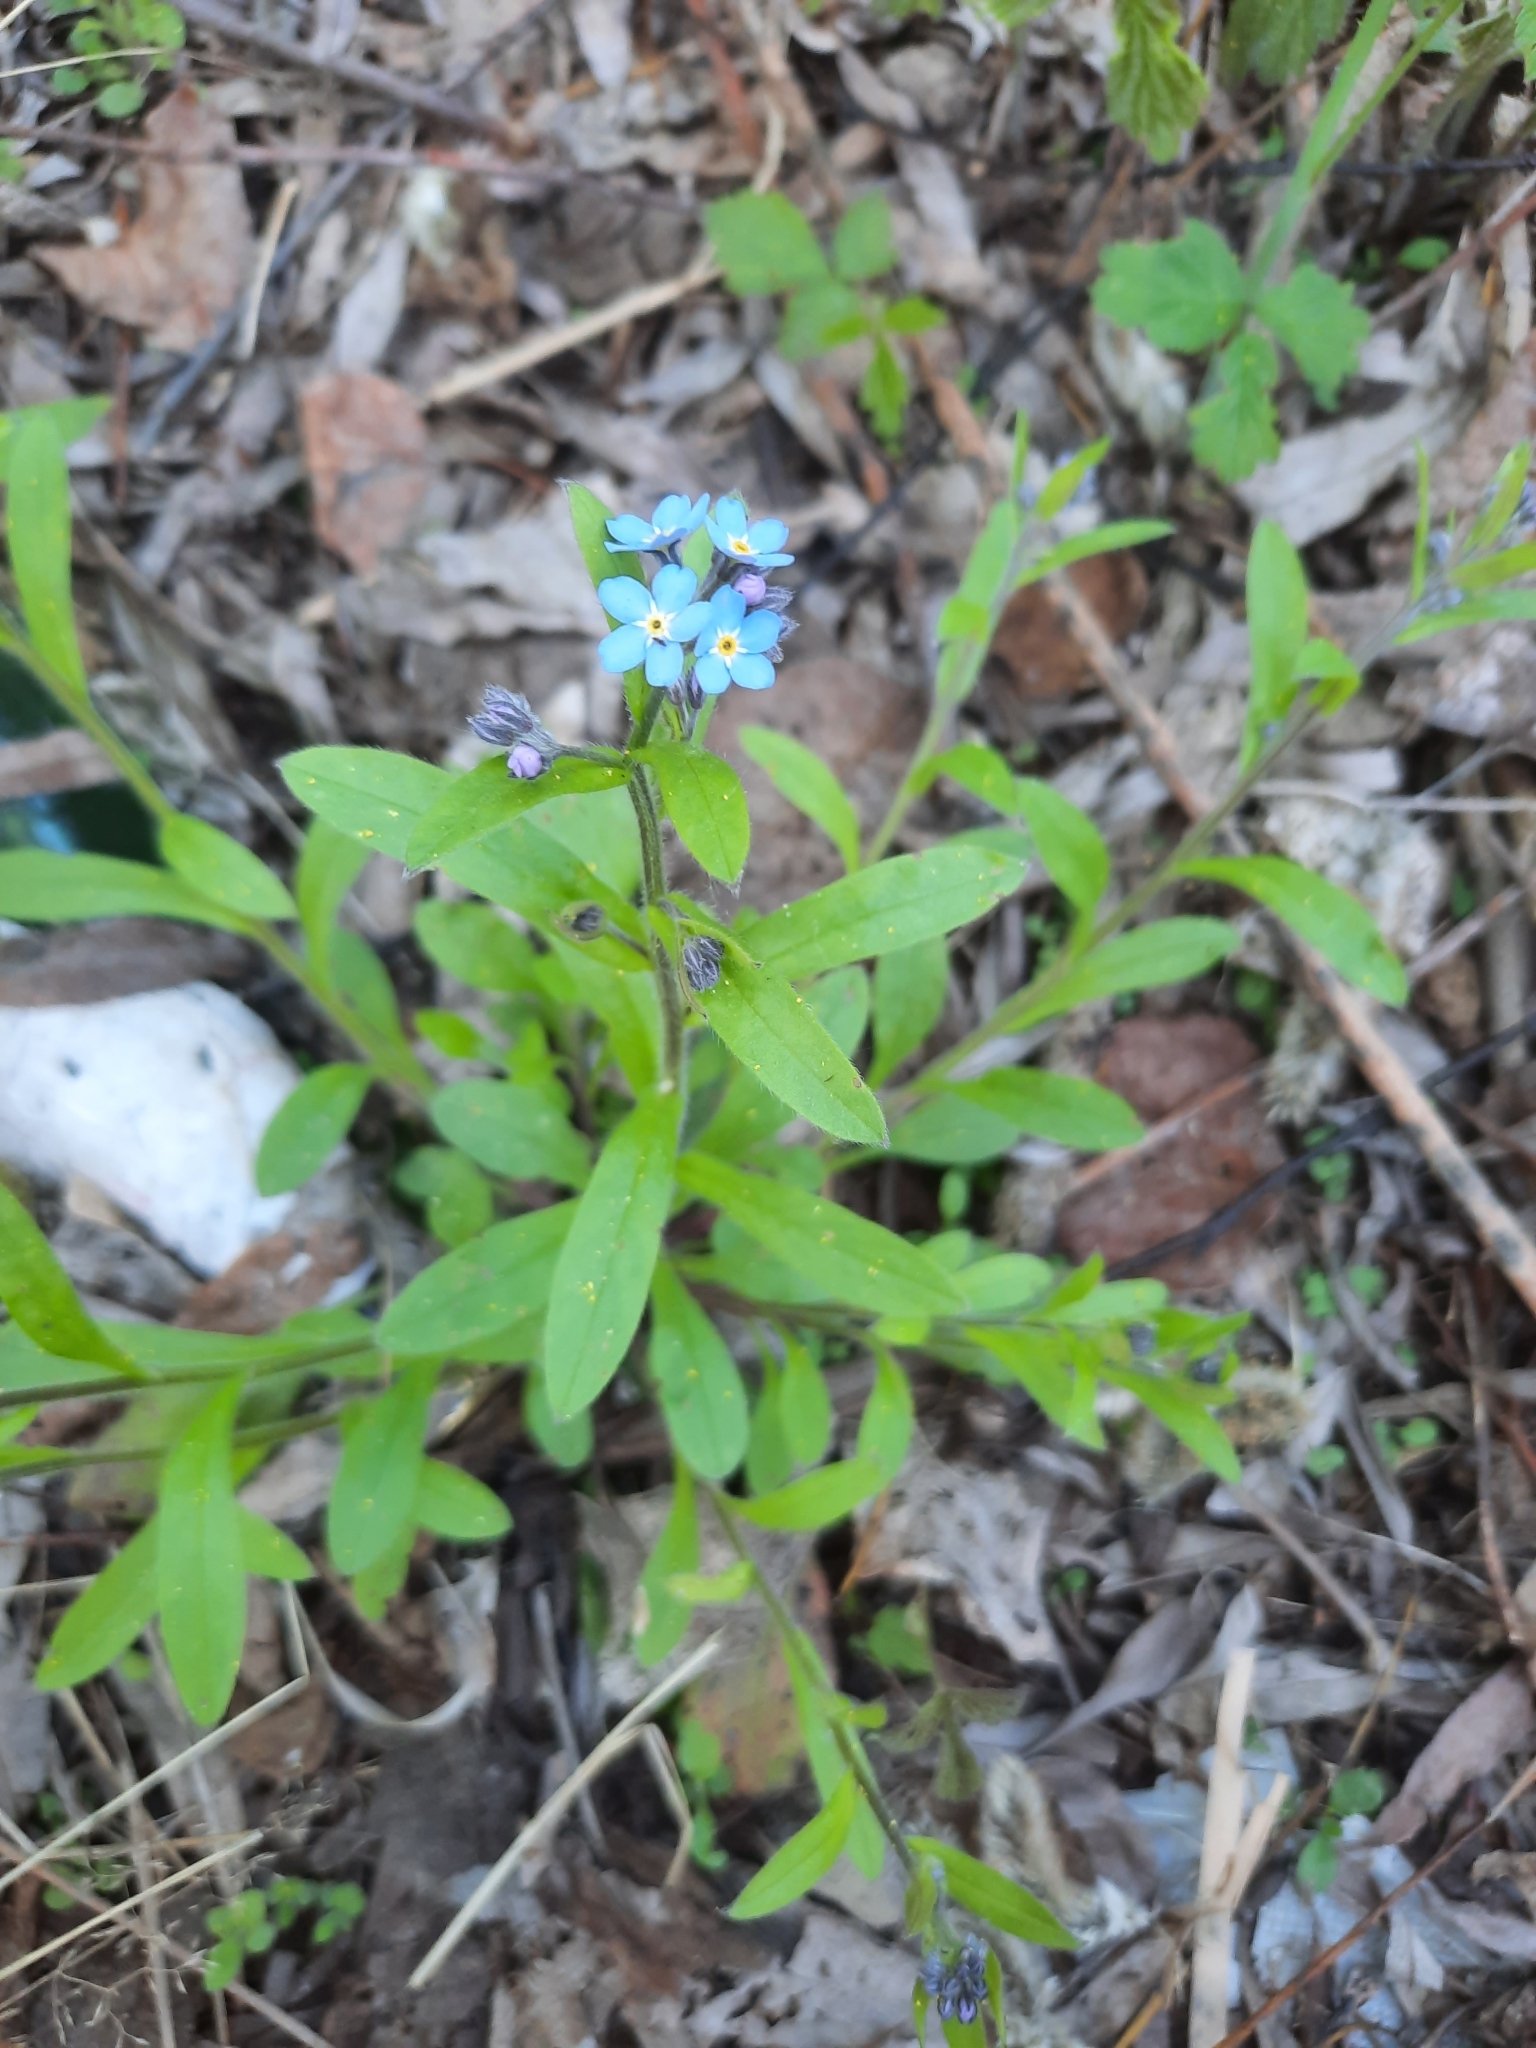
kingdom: Plantae
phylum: Tracheophyta
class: Magnoliopsida
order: Boraginales
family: Boraginaceae
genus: Myosotis
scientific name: Myosotis sylvatica
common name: Wood forget-me-not
